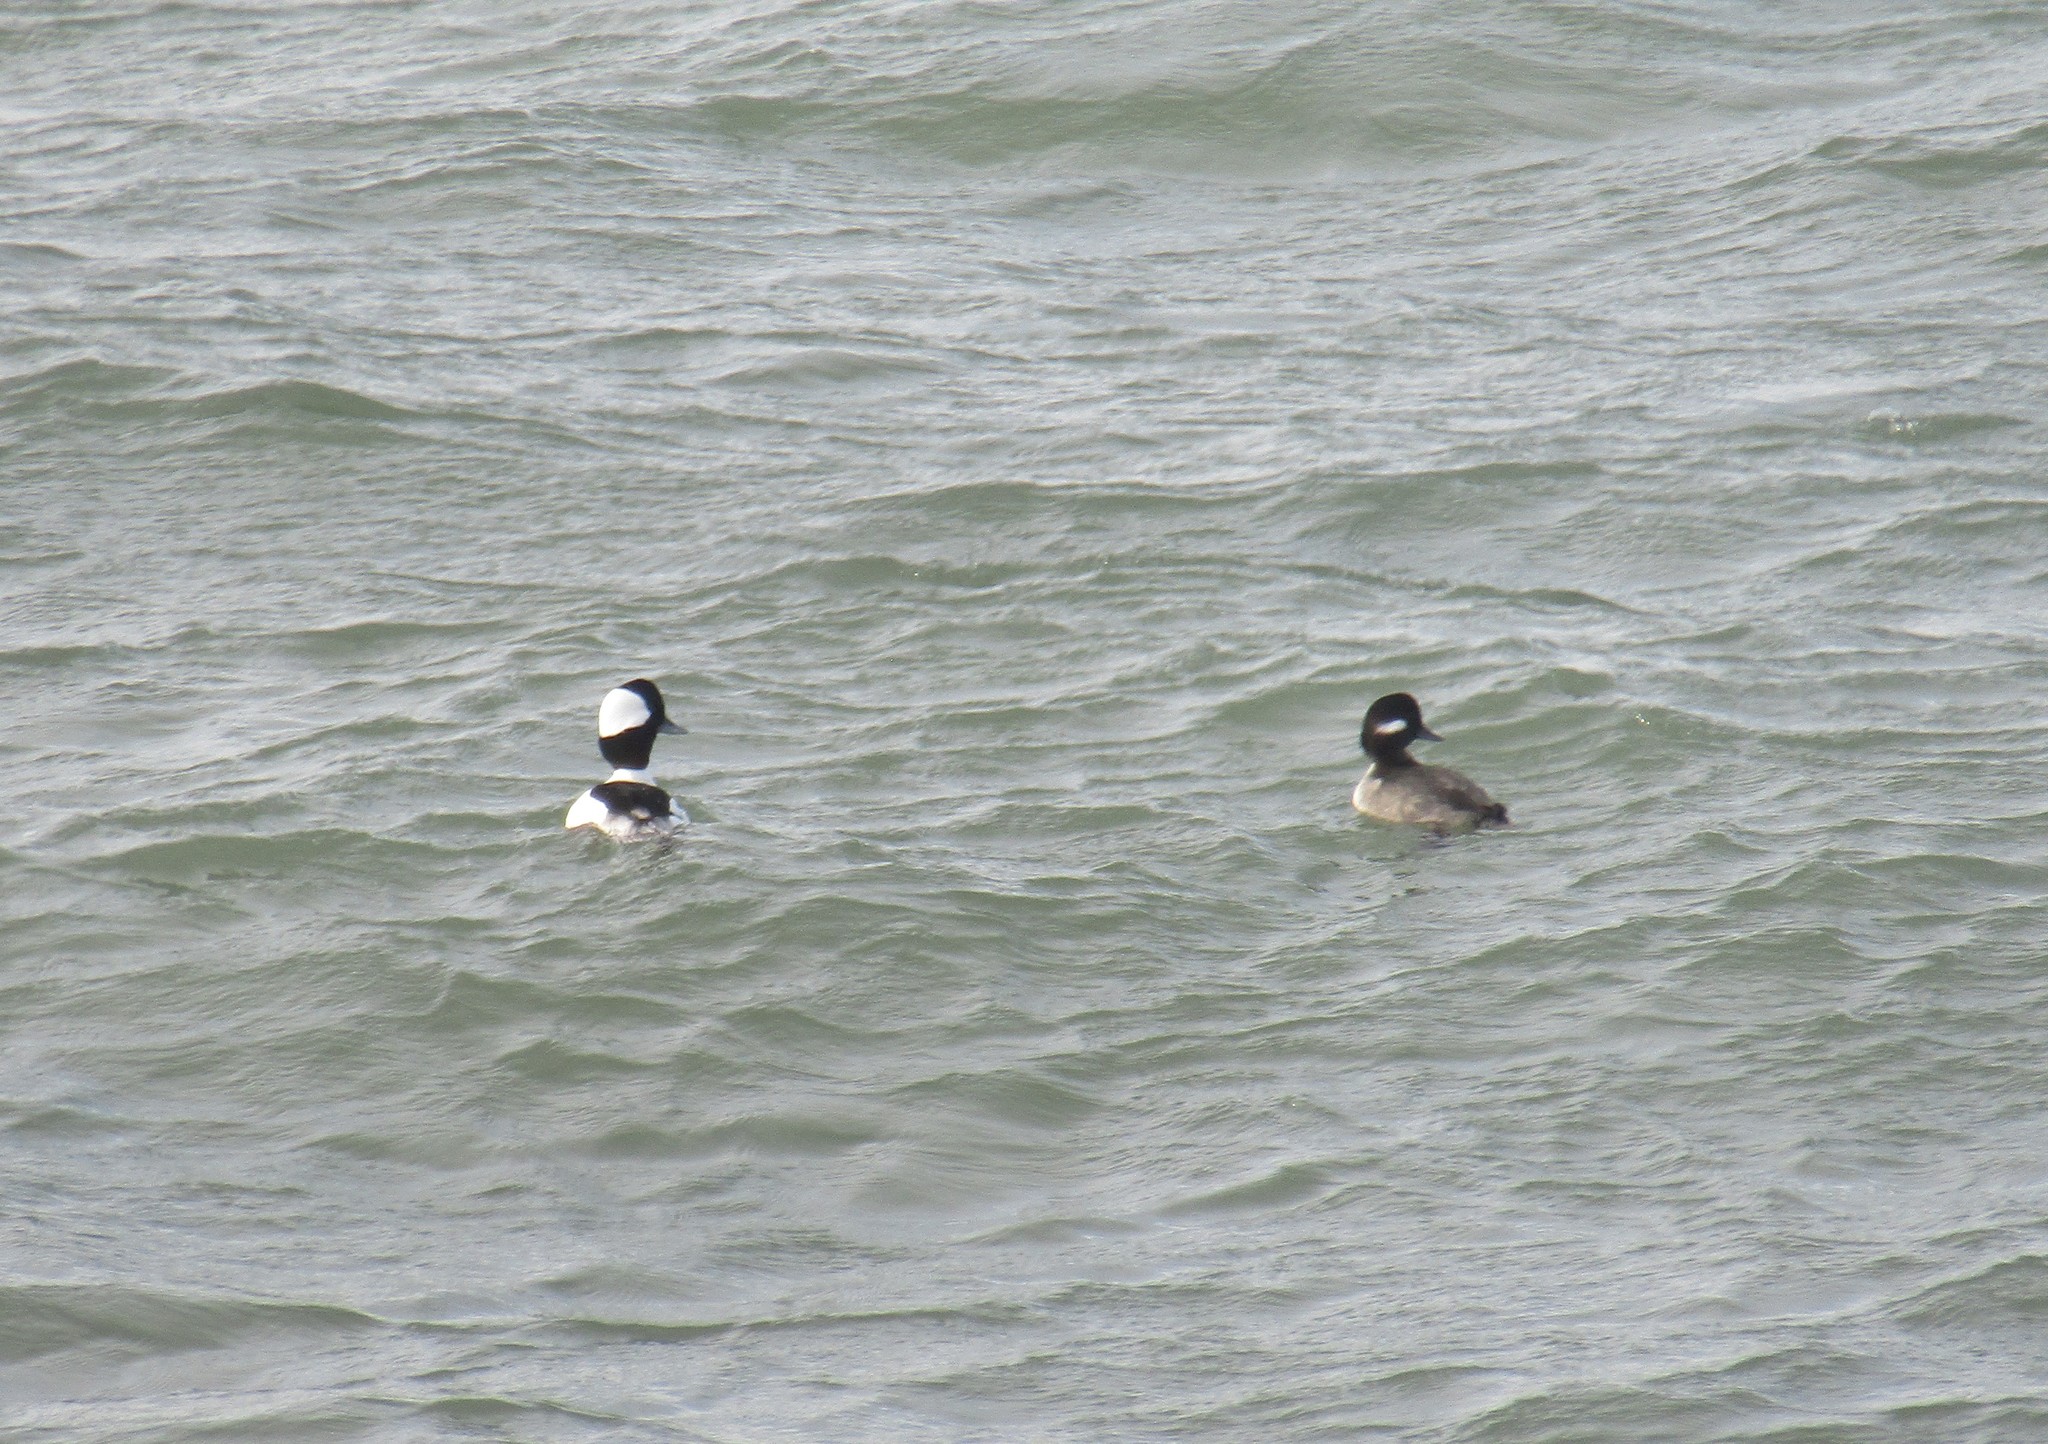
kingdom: Animalia
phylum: Chordata
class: Aves
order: Anseriformes
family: Anatidae
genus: Bucephala
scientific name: Bucephala albeola
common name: Bufflehead
